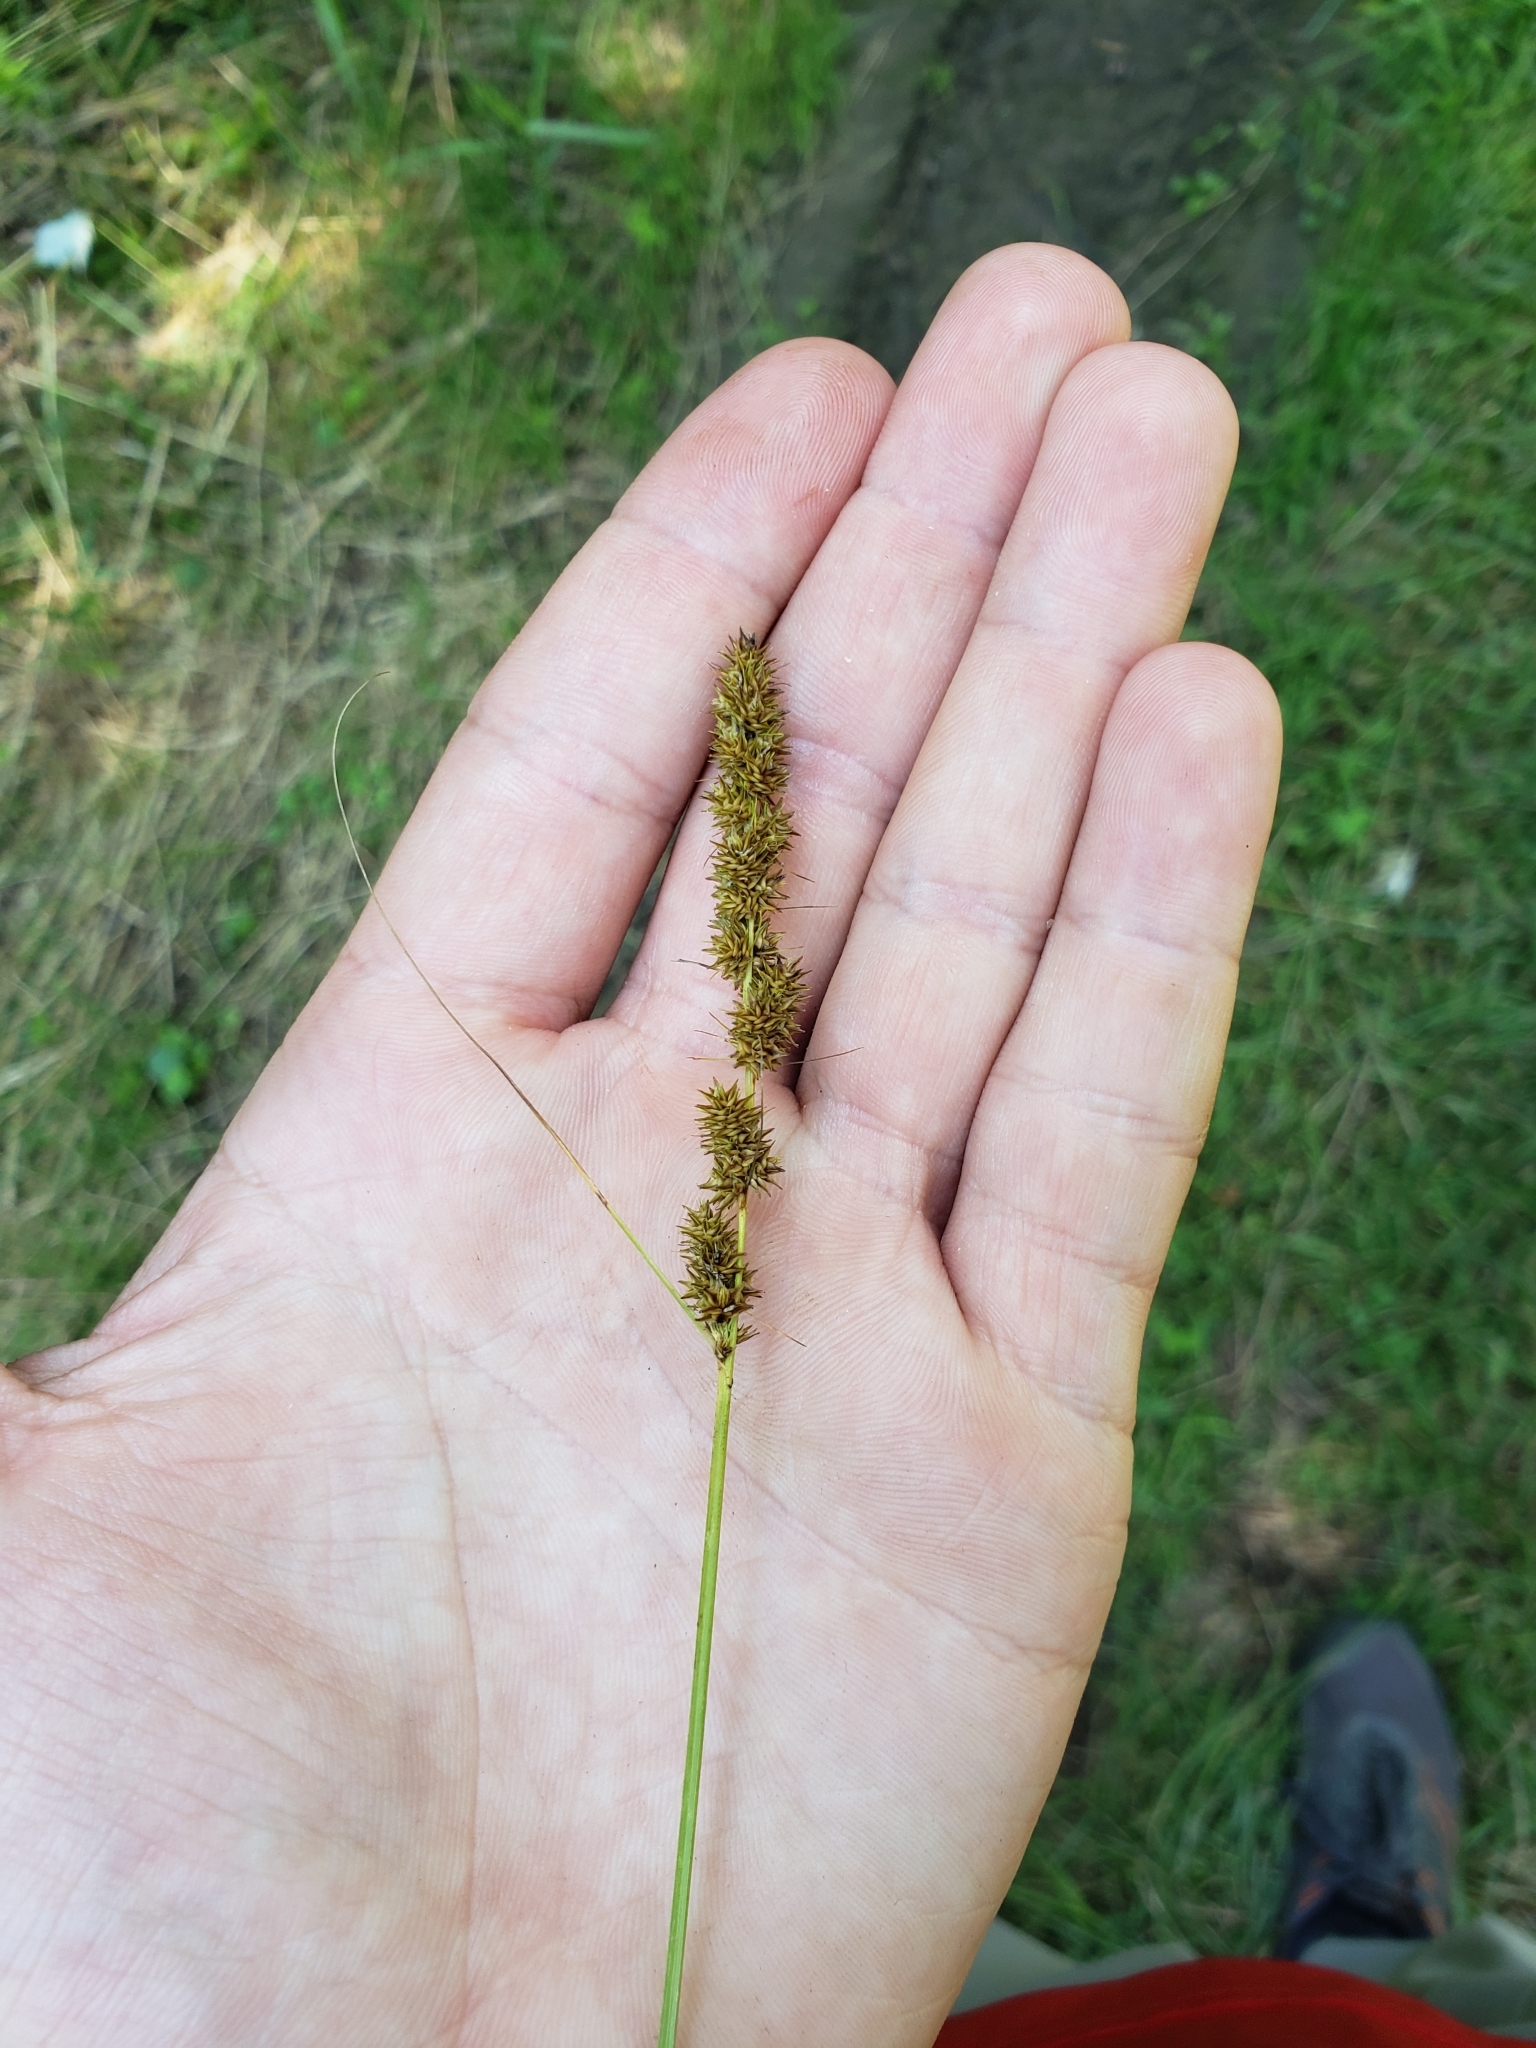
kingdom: Plantae
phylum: Tracheophyta
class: Liliopsida
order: Poales
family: Cyperaceae
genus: Carex
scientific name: Carex vulpinoidea
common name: American fox-sedge
